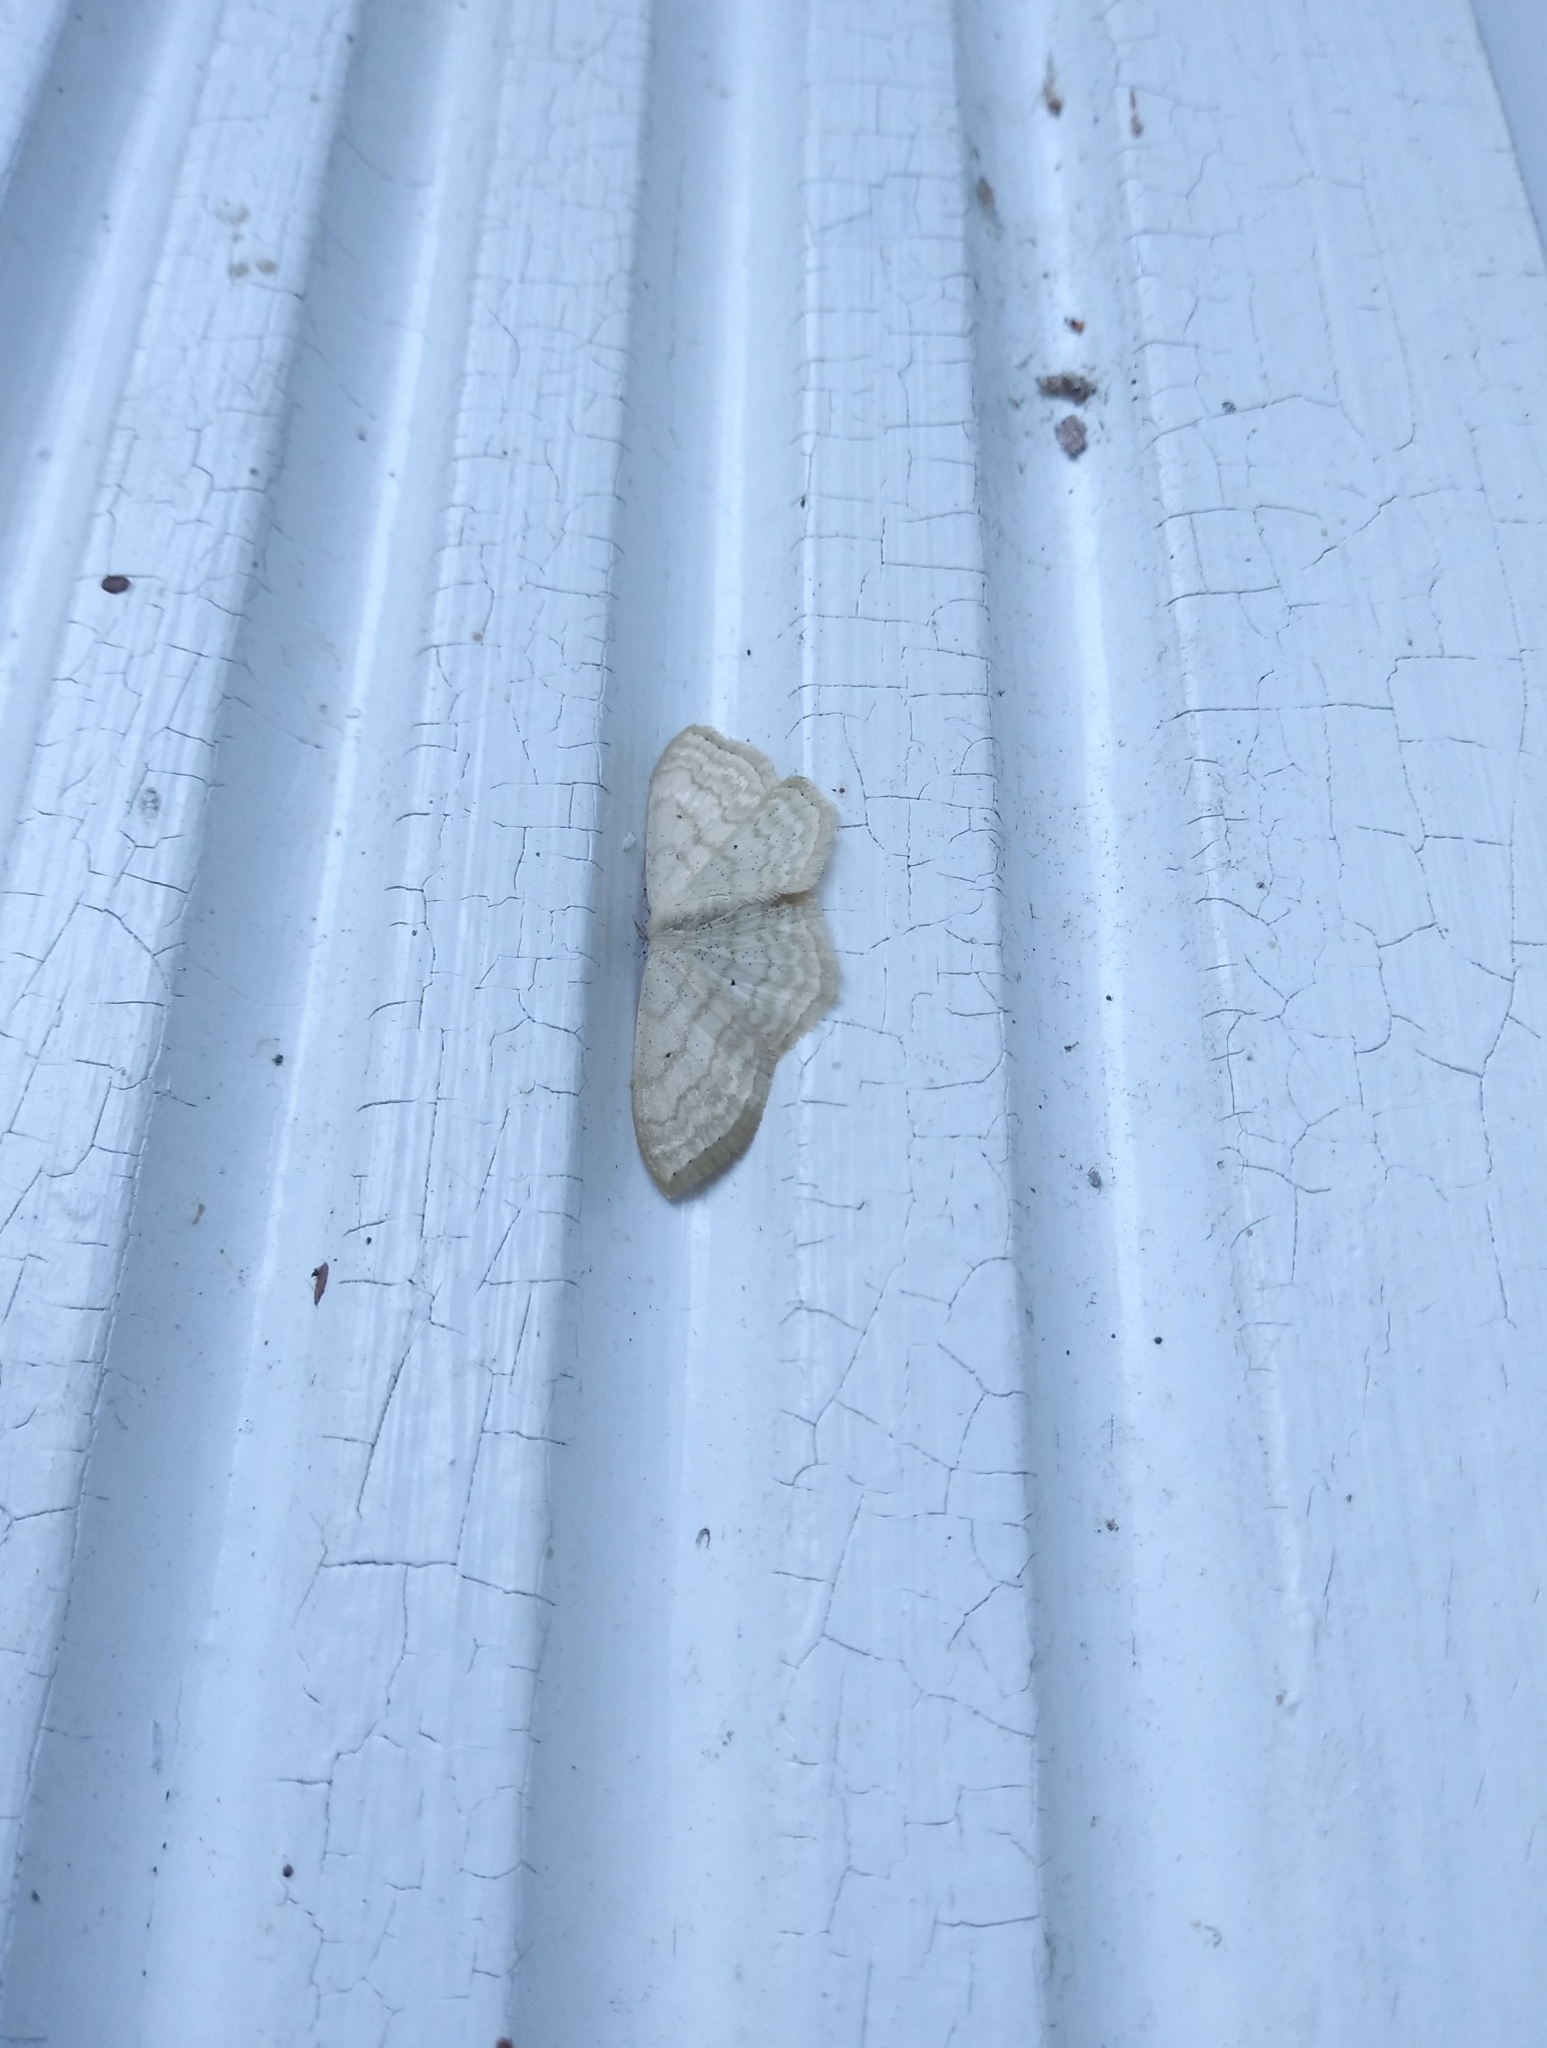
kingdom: Animalia
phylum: Arthropoda
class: Insecta
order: Lepidoptera
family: Geometridae
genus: Scopula
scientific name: Scopula limboundata
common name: Large lace border
